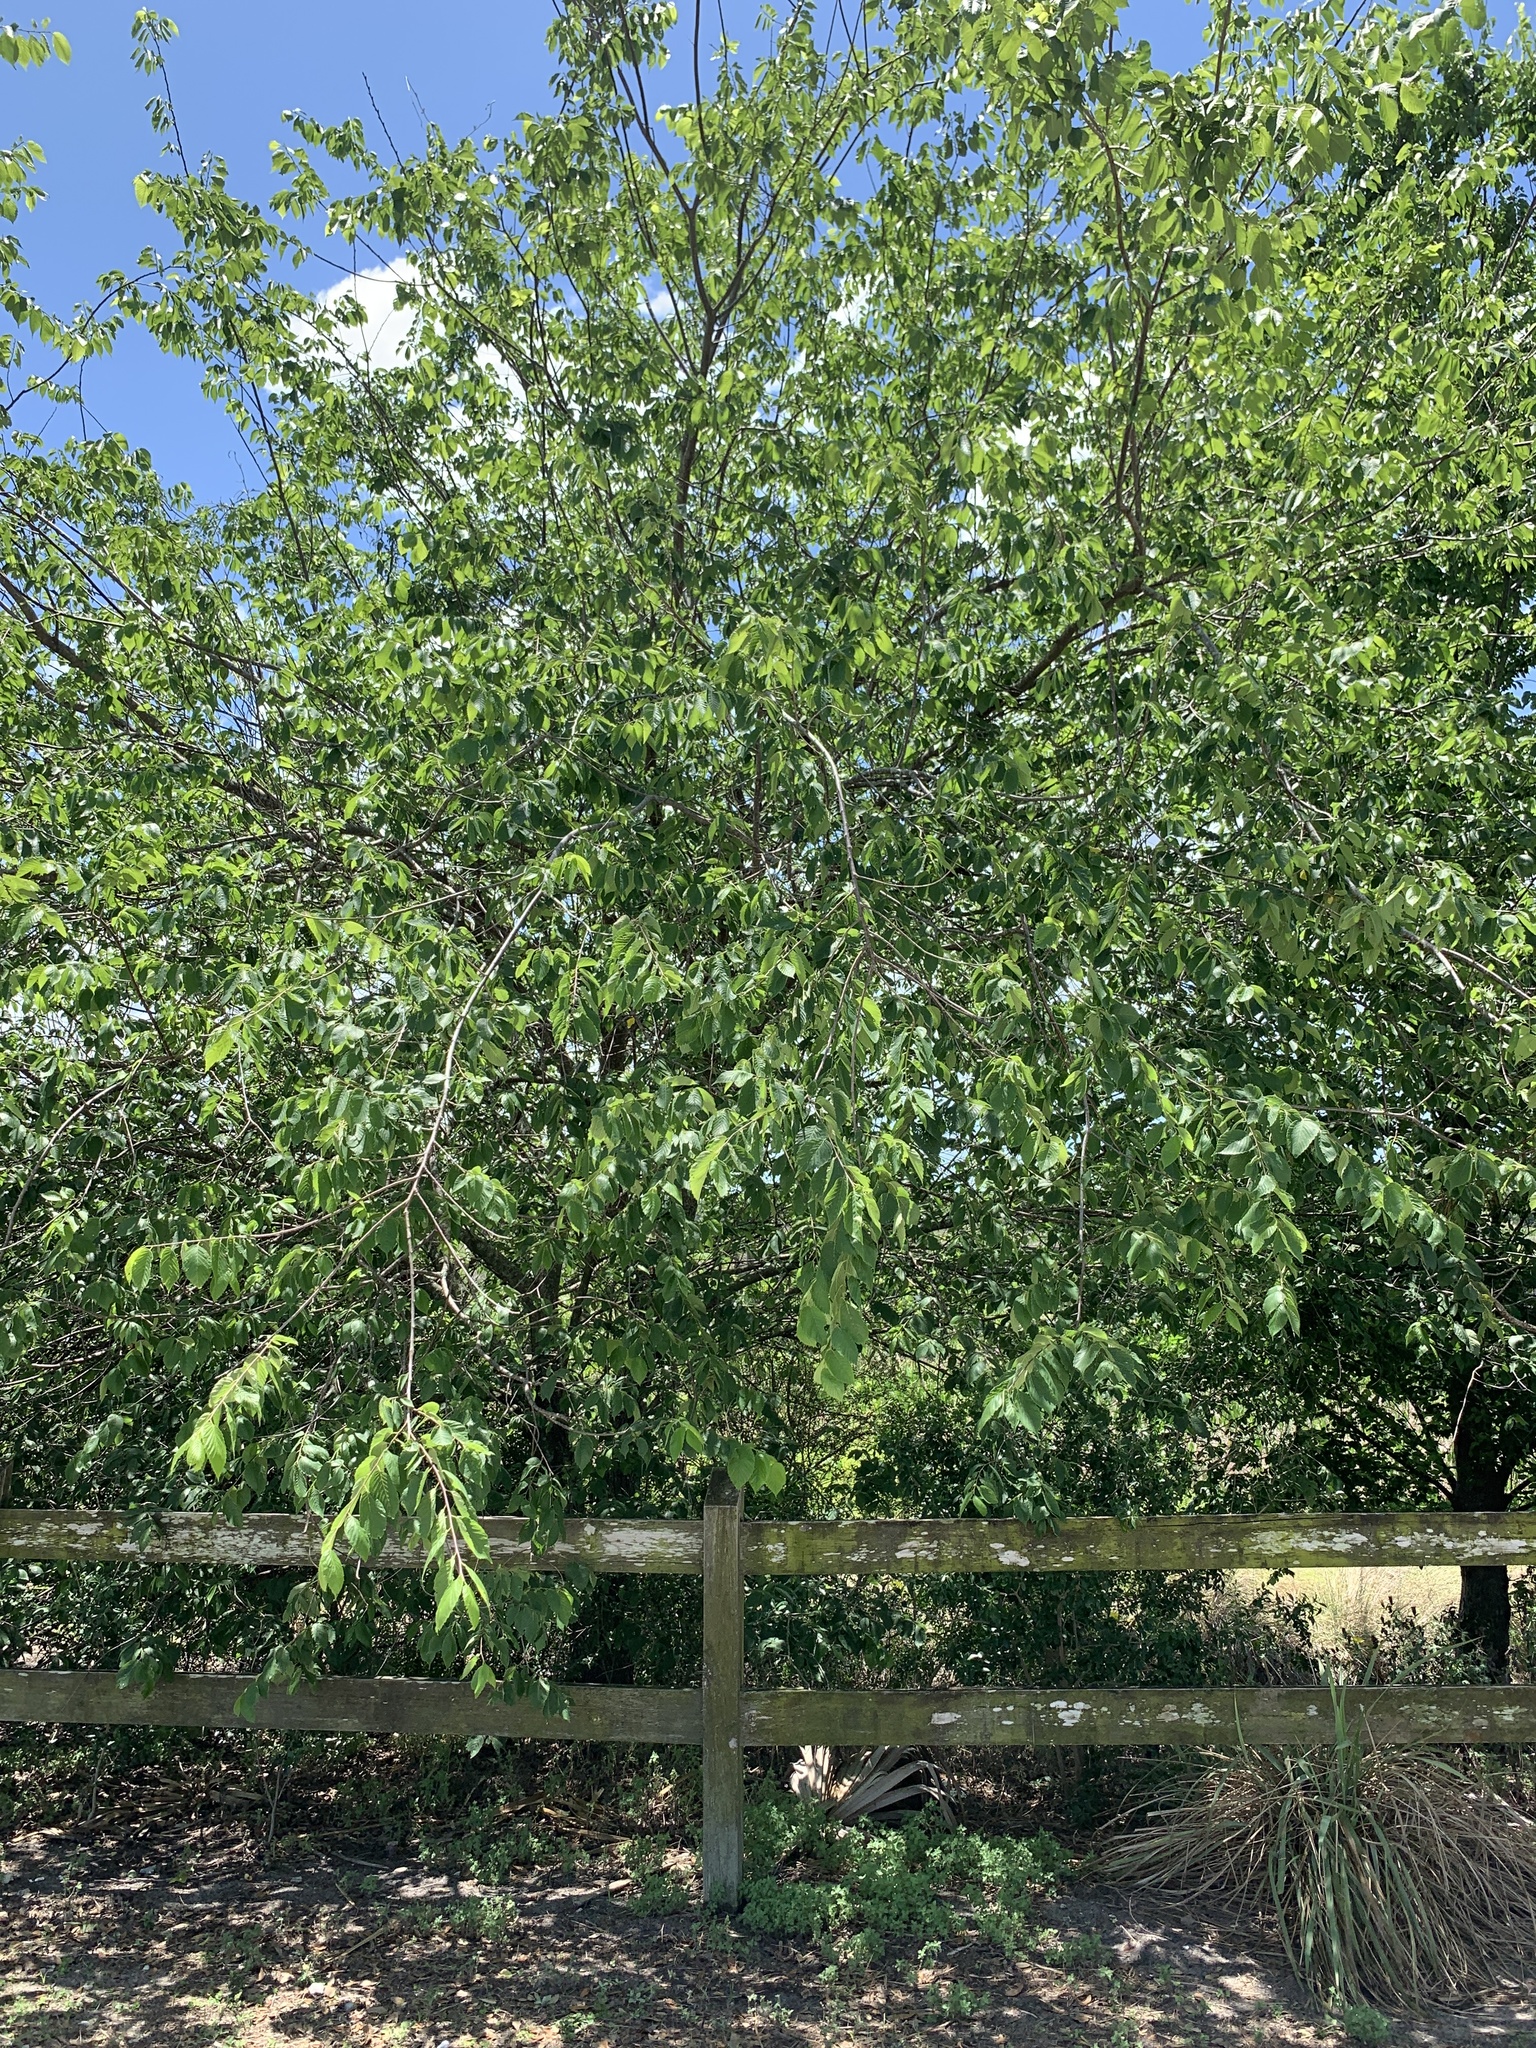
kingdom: Plantae
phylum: Tracheophyta
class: Magnoliopsida
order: Rosales
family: Ulmaceae
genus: Ulmus
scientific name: Ulmus americana
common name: American elm
